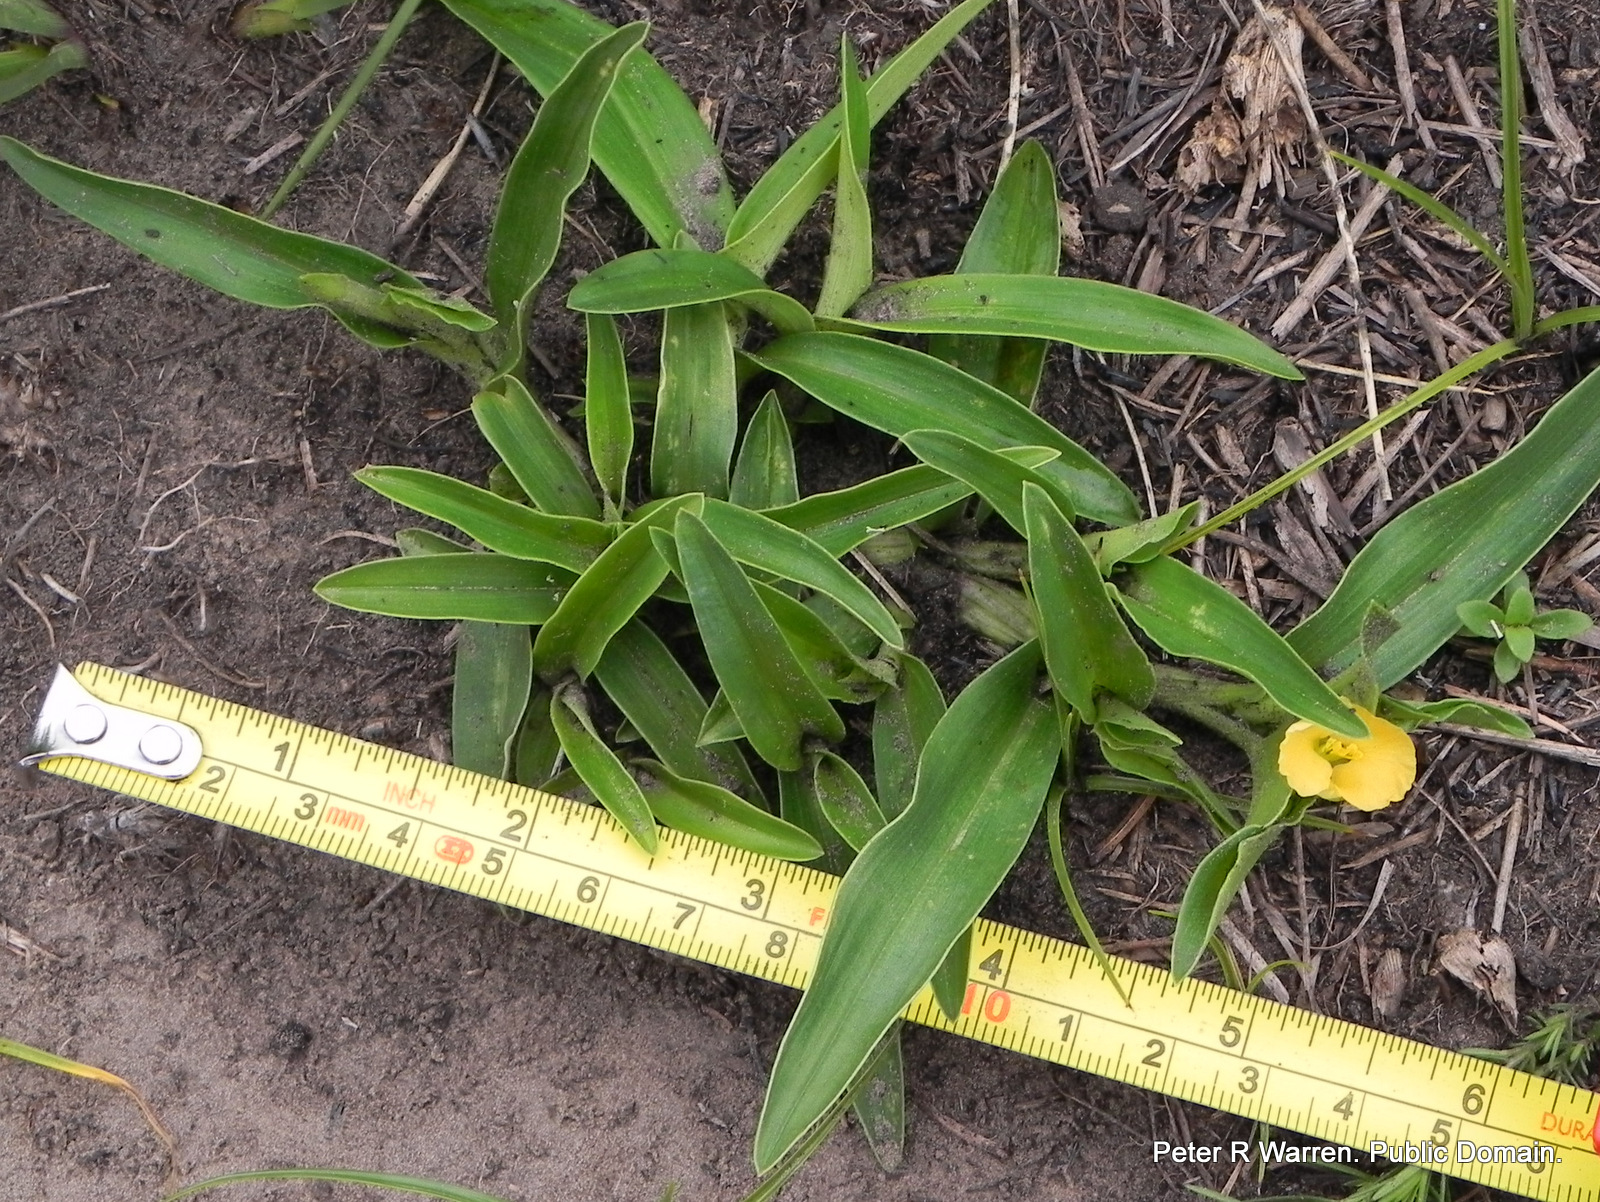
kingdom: Plantae
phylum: Tracheophyta
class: Liliopsida
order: Commelinales
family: Commelinaceae
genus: Commelina
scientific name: Commelina africana
